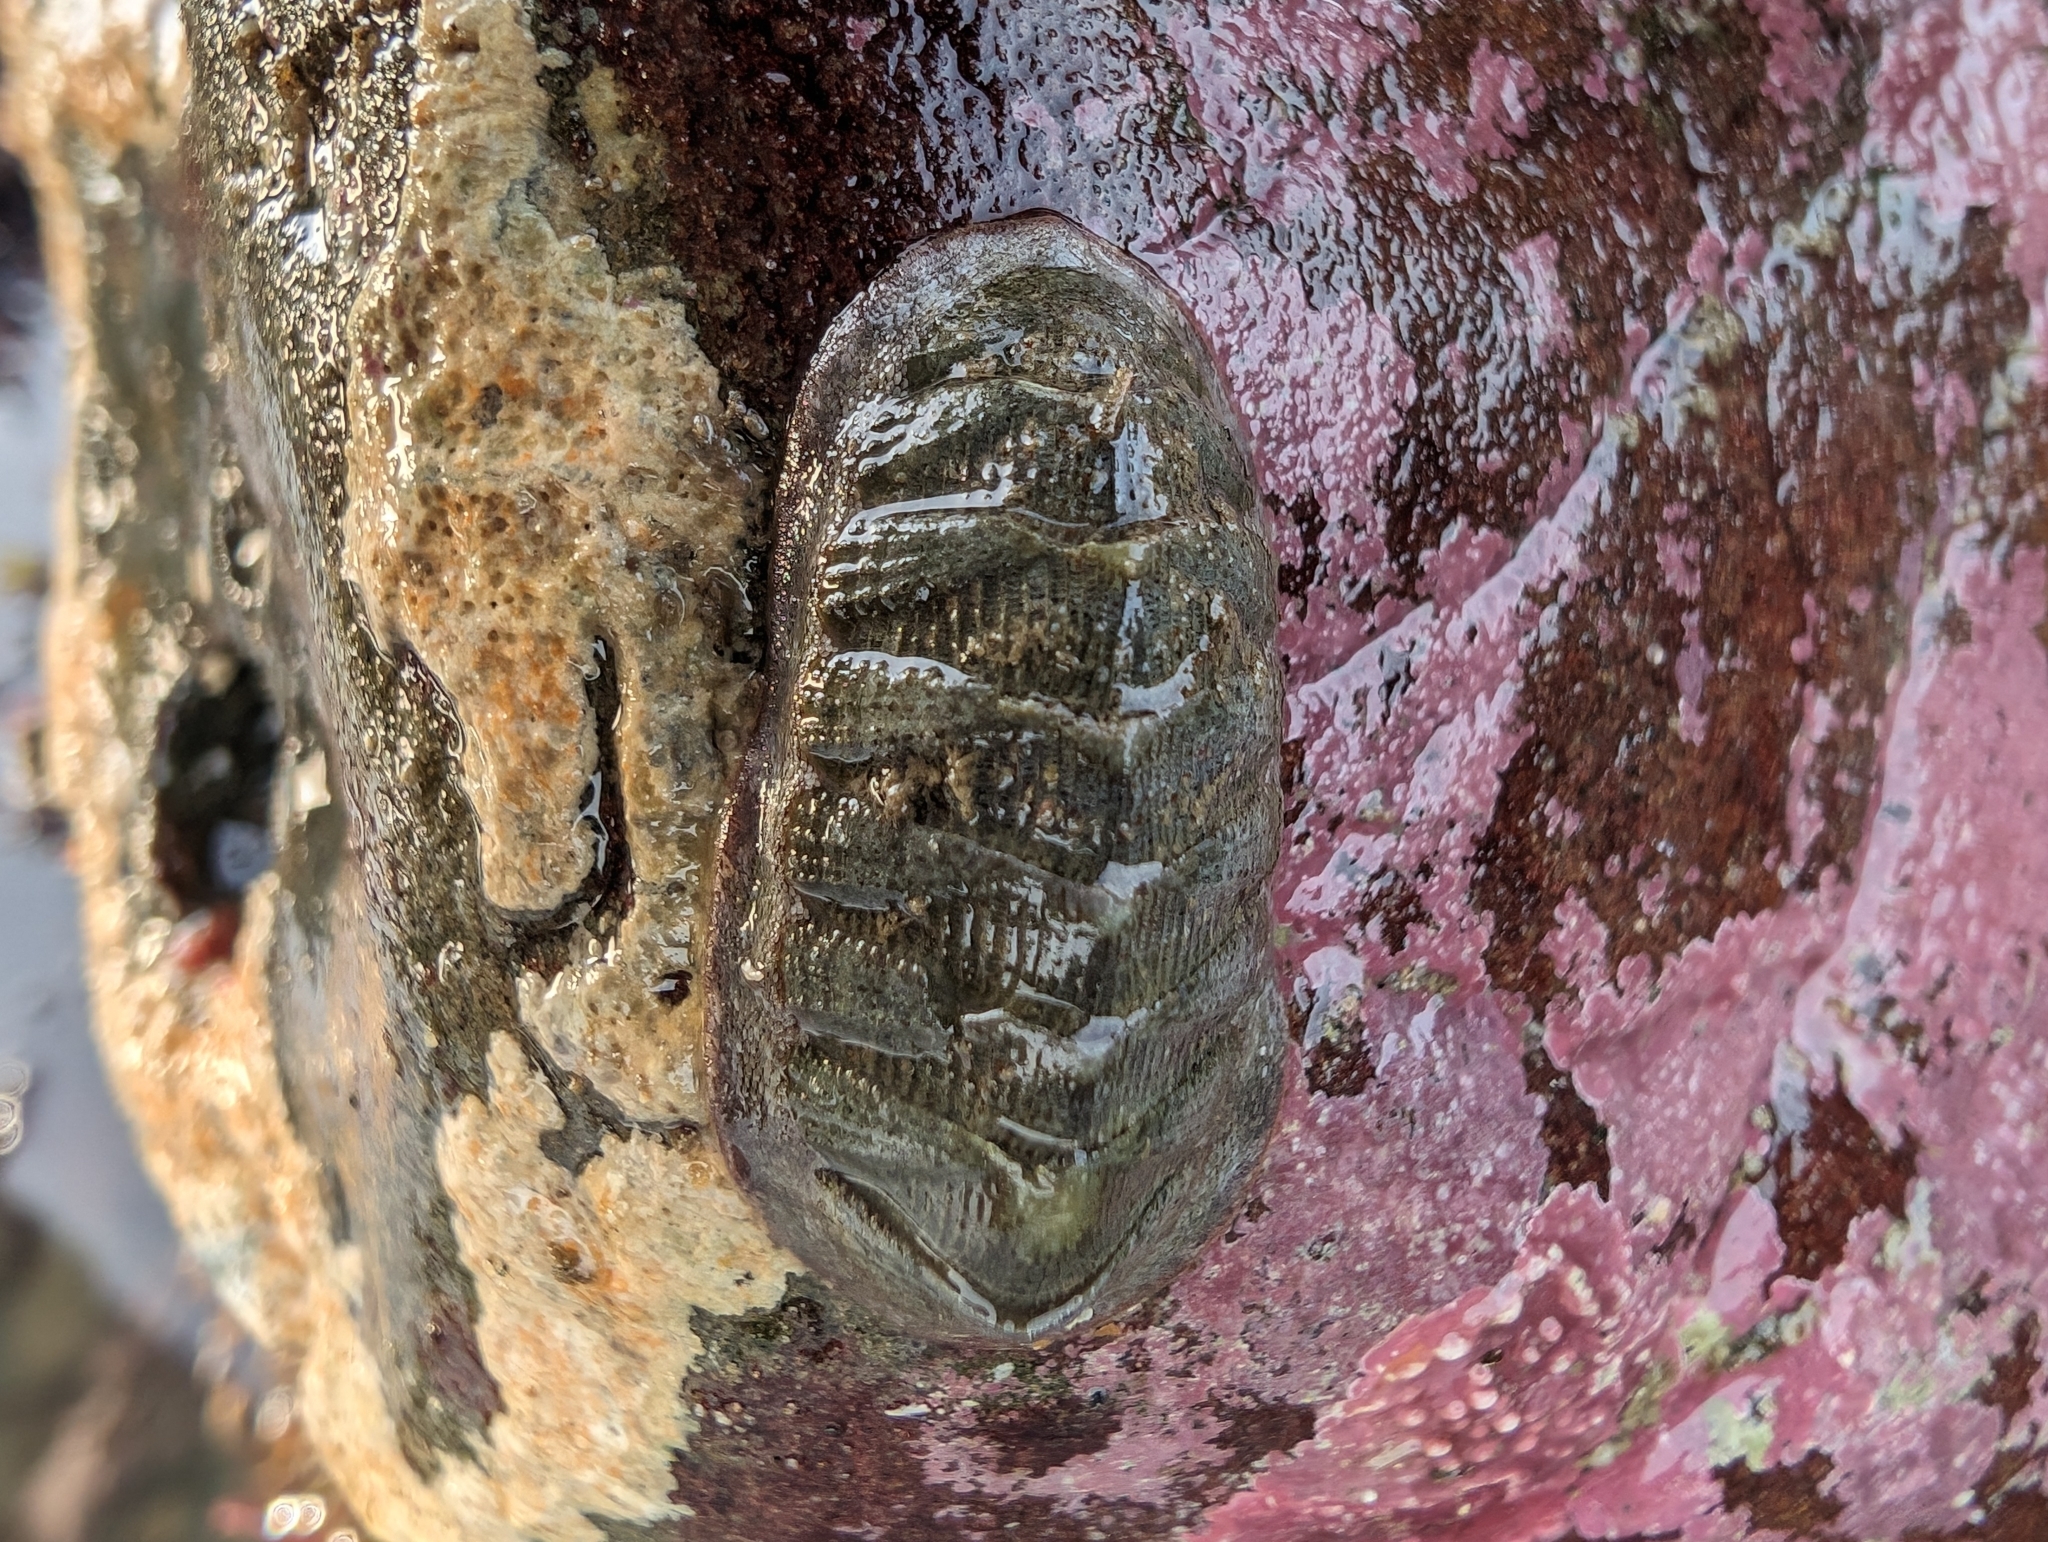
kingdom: Animalia
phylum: Mollusca
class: Polyplacophora
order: Chitonida
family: Ischnochitonidae
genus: Lepidozona
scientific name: Lepidozona cooperi
